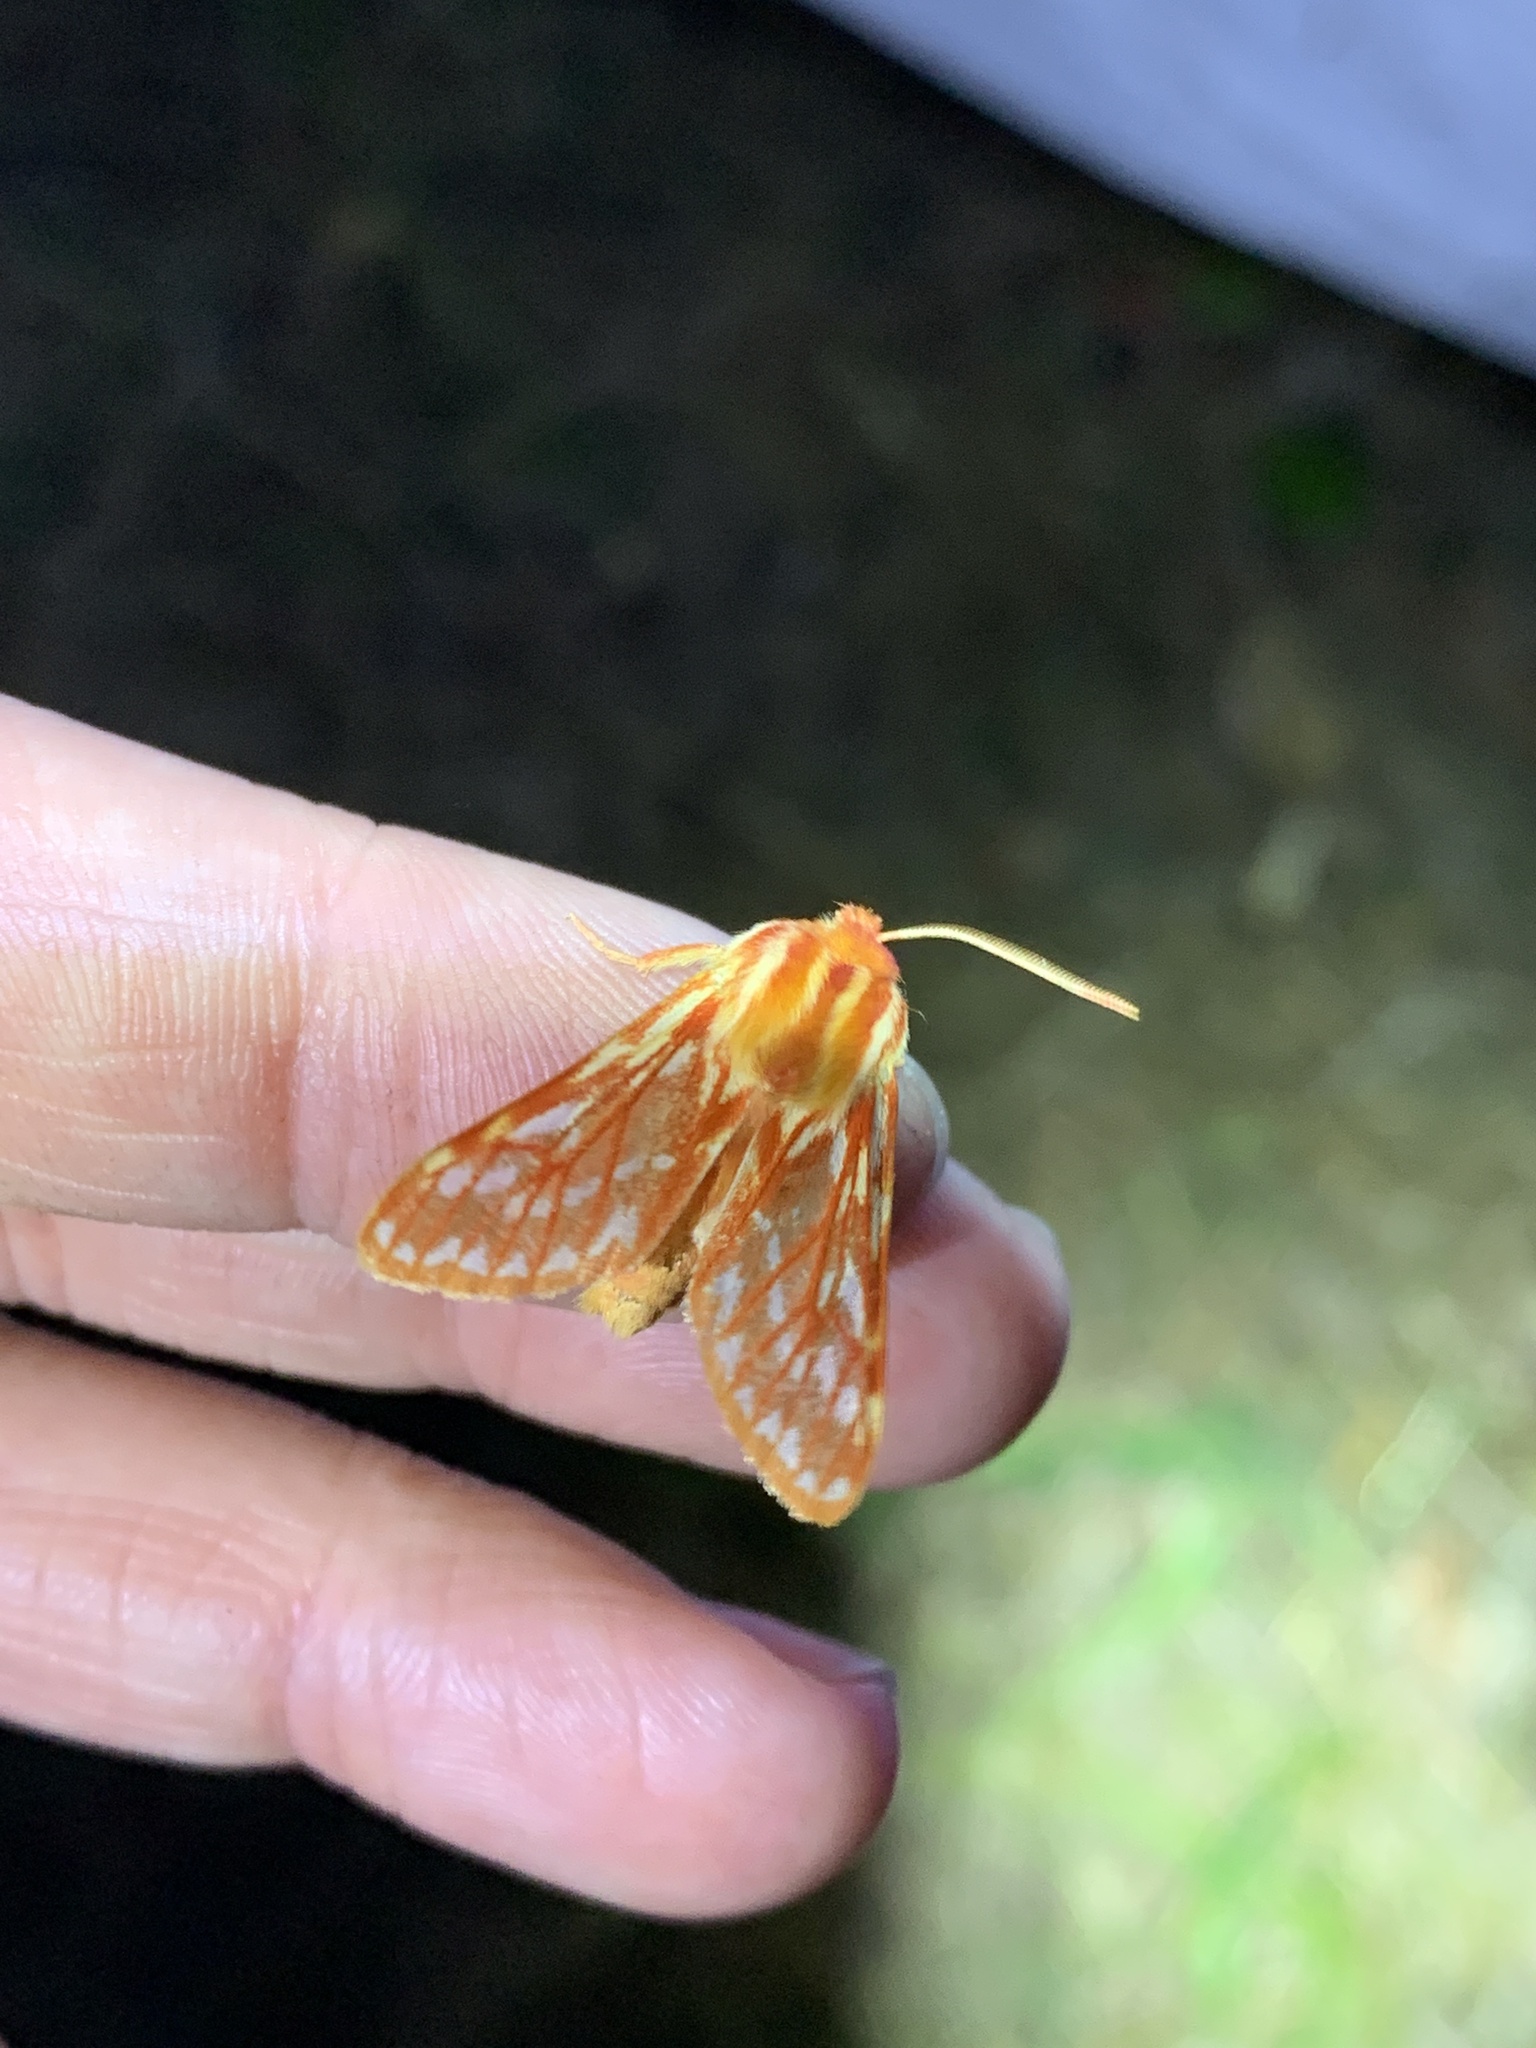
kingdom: Animalia
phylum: Arthropoda
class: Insecta
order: Lepidoptera
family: Erebidae
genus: Lophocampa
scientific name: Lophocampa roseata
